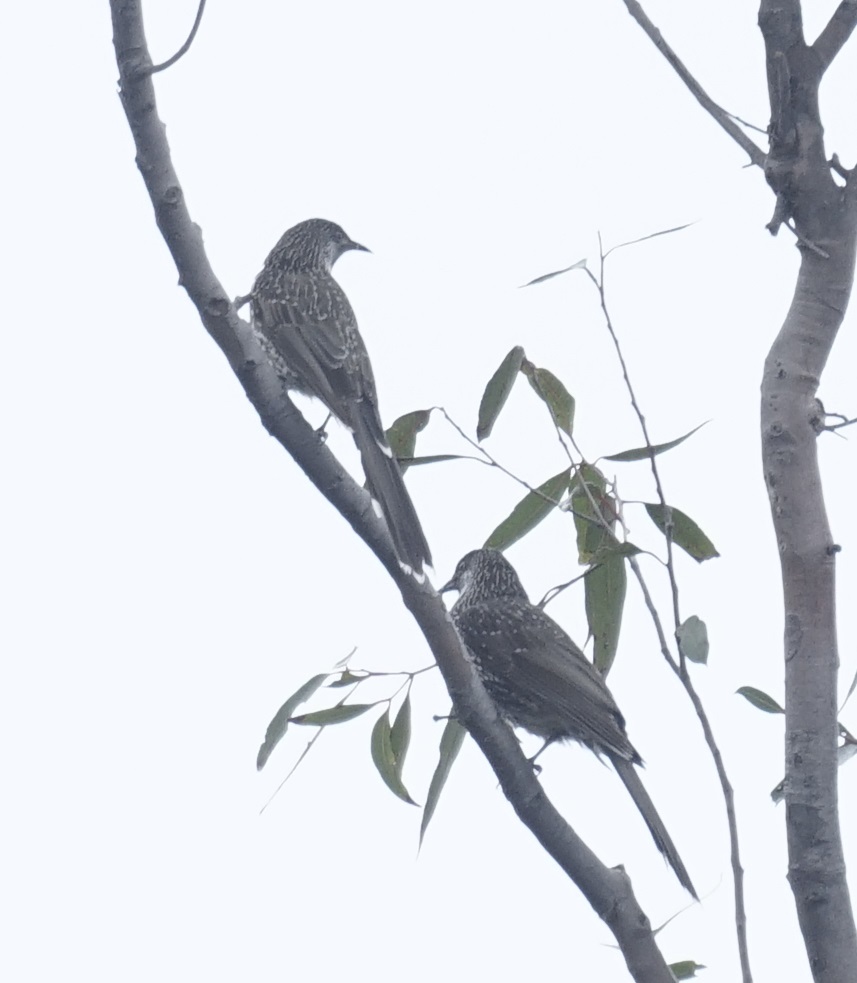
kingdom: Animalia
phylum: Chordata
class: Aves
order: Passeriformes
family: Meliphagidae
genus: Anthochaera
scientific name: Anthochaera chrysoptera
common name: Little wattlebird
